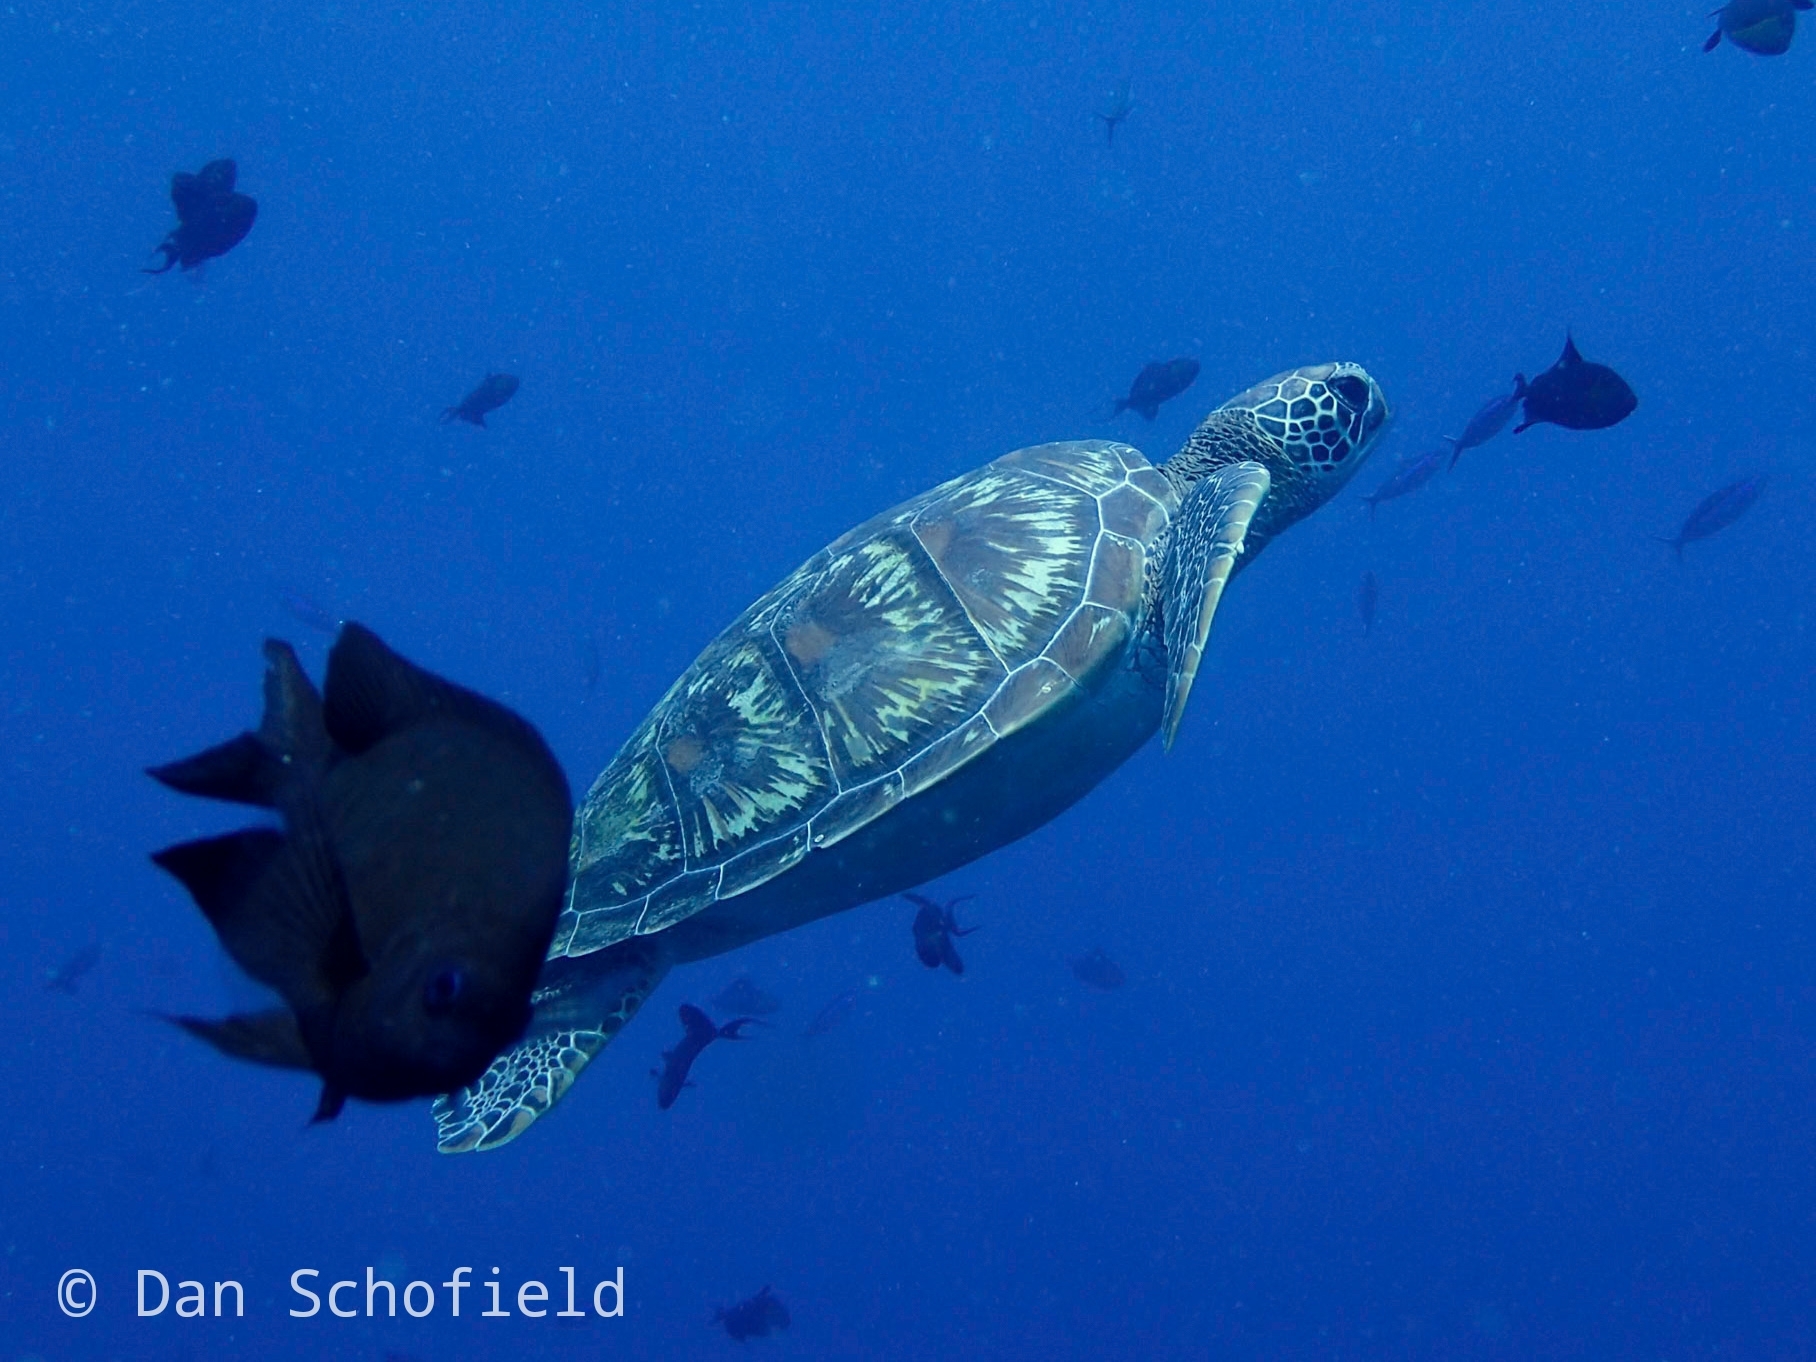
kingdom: Animalia
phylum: Chordata
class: Testudines
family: Cheloniidae
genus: Chelonia
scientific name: Chelonia mydas
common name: Green turtle
